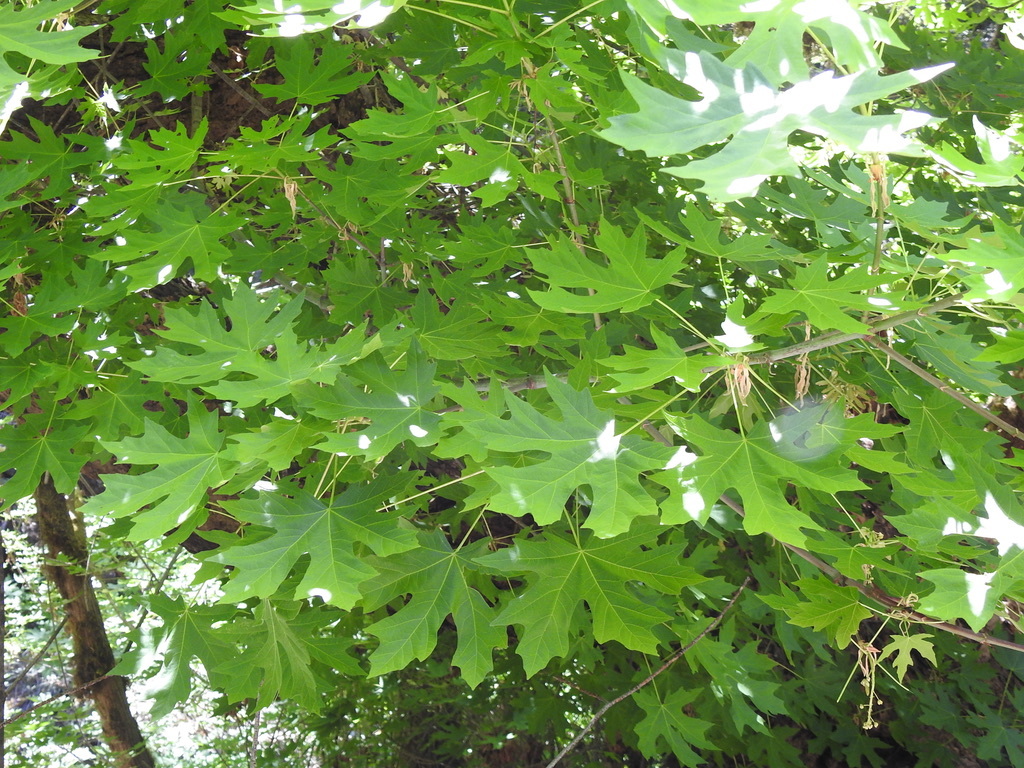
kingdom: Plantae
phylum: Tracheophyta
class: Magnoliopsida
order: Sapindales
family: Sapindaceae
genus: Acer
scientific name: Acer macrophyllum
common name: Oregon maple
